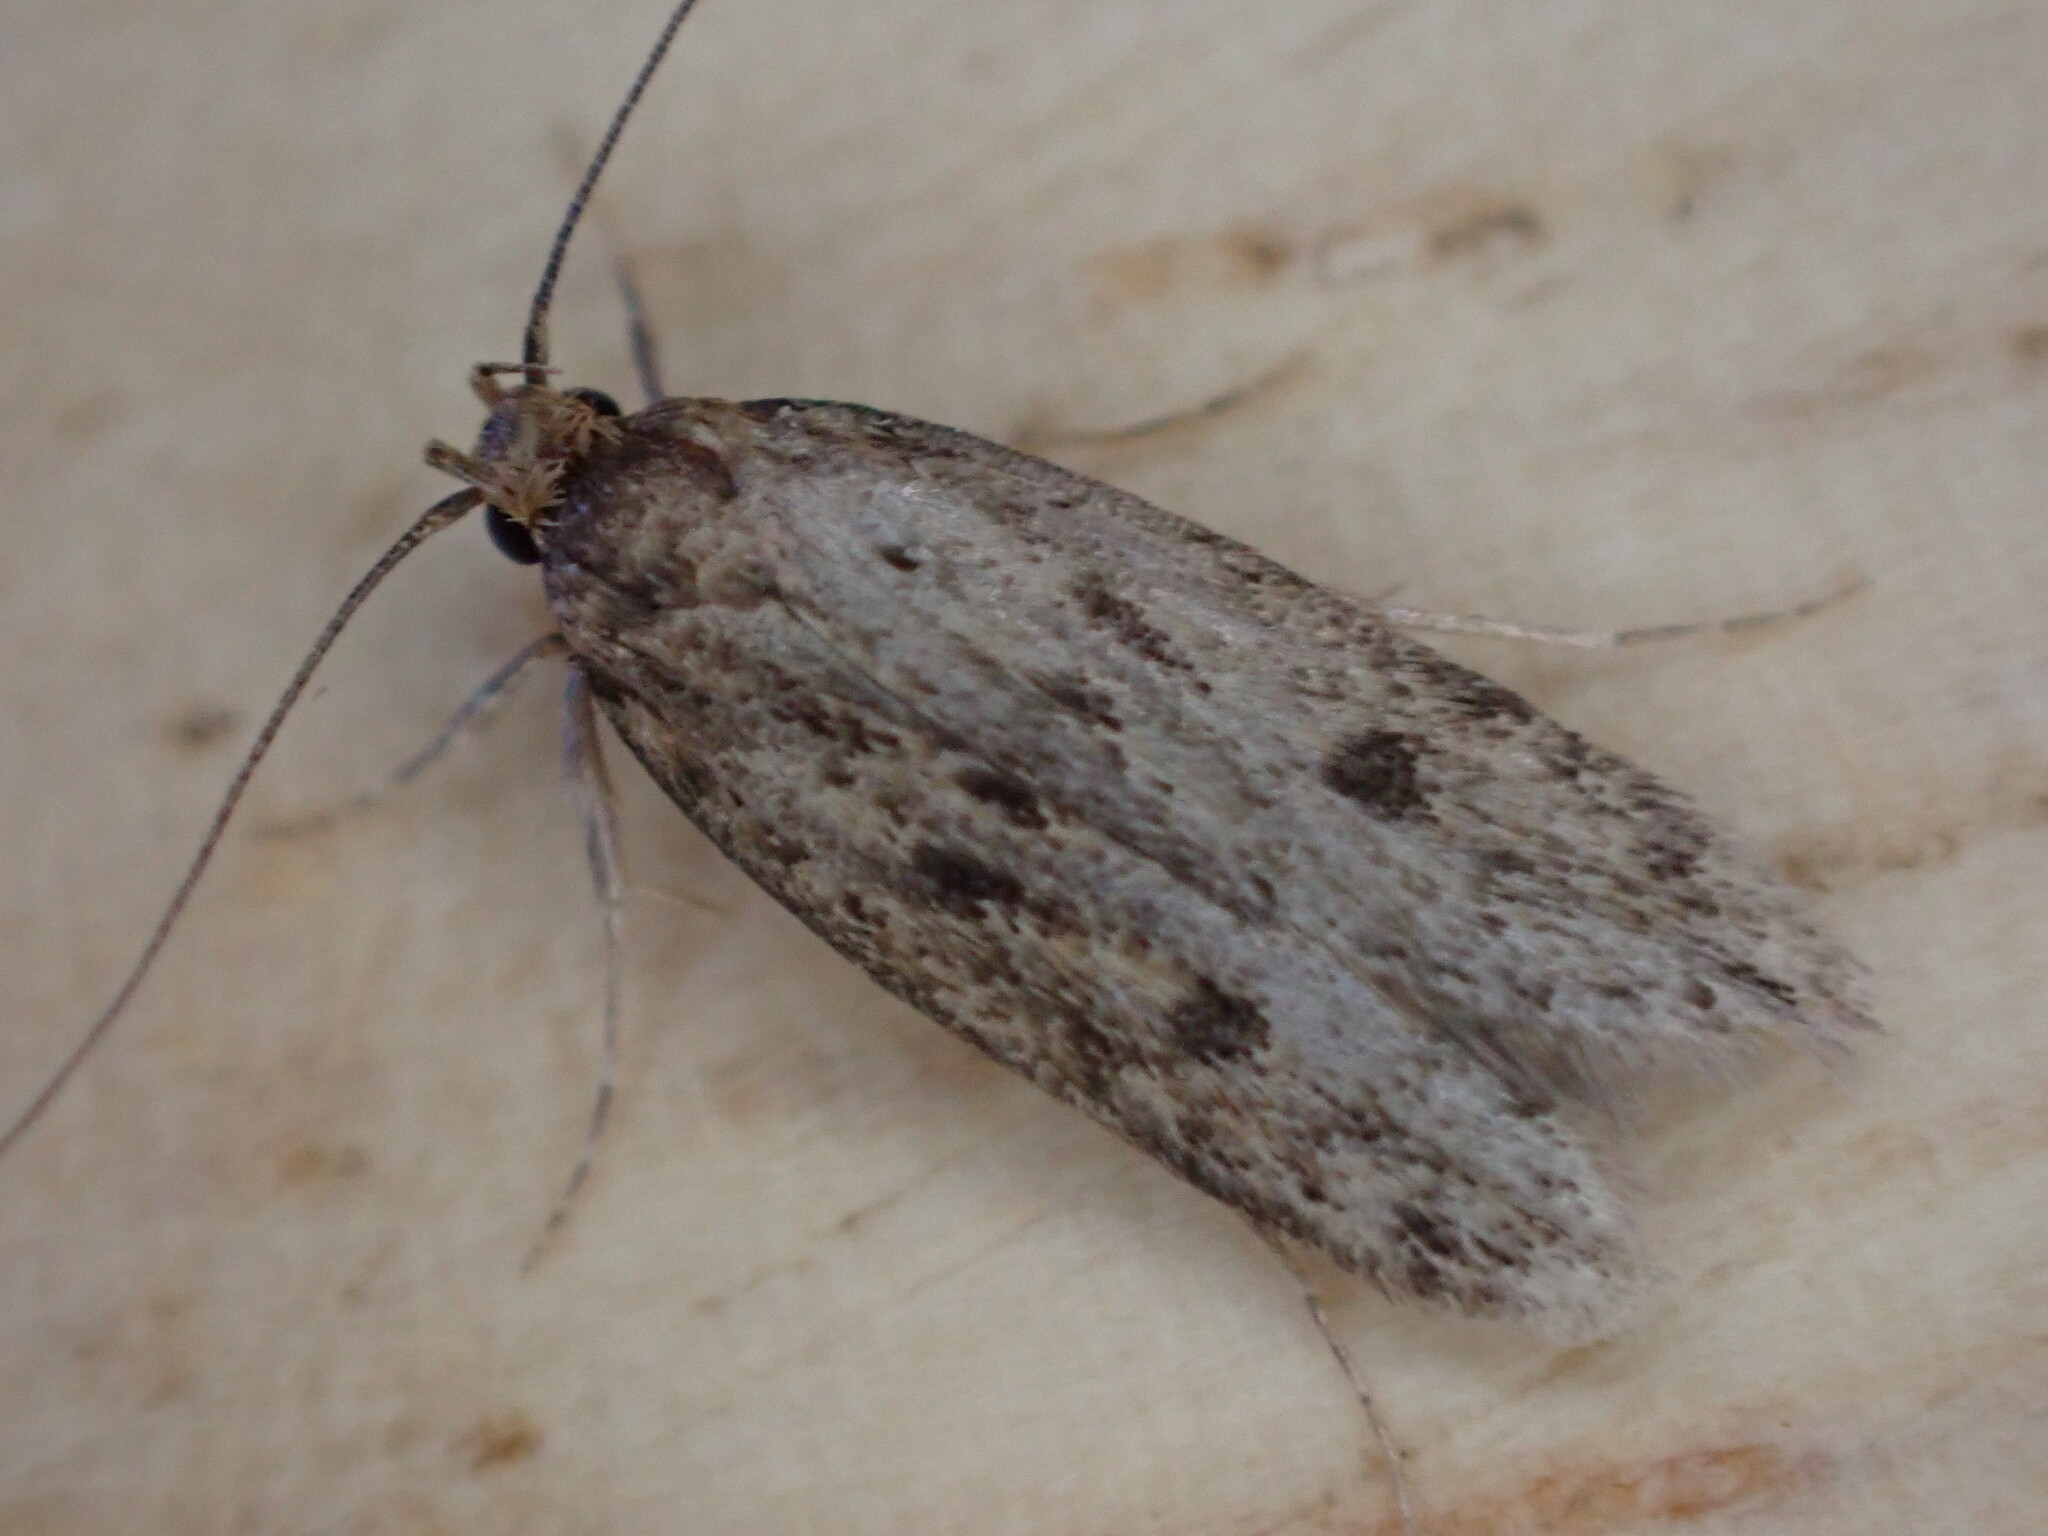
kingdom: Animalia
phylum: Arthropoda
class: Insecta
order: Lepidoptera
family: Oecophoridae
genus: Hofmannophila
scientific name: Hofmannophila pseudospretella
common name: Brown house moth
